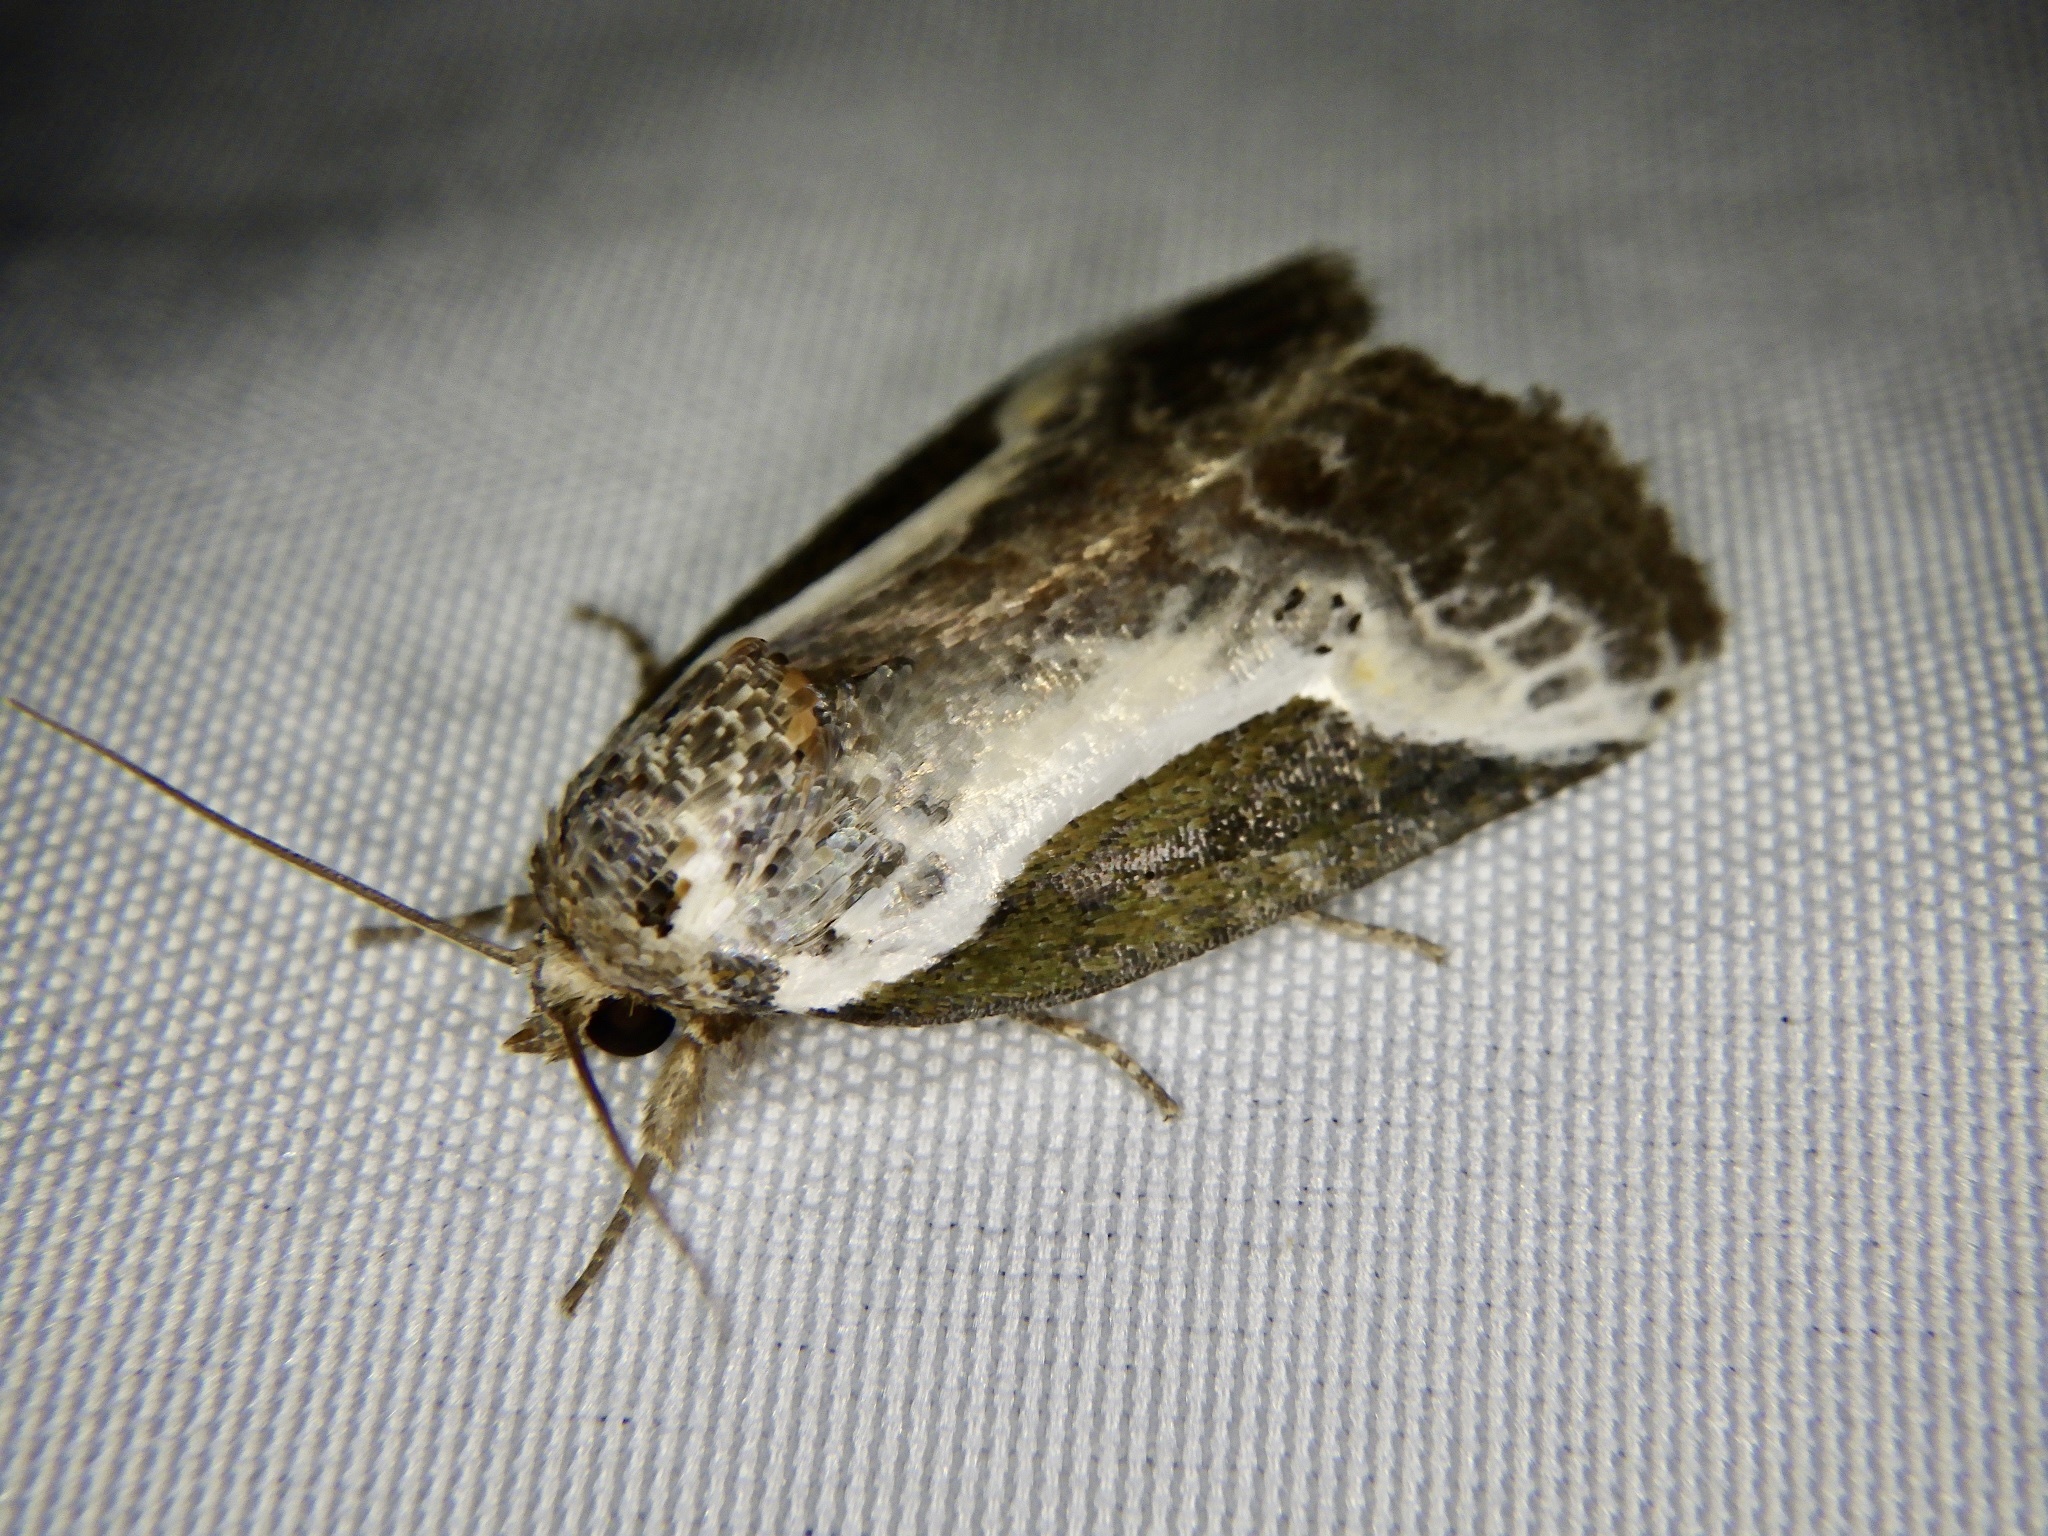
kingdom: Animalia
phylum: Arthropoda
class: Insecta
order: Lepidoptera
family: Noctuidae
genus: Stenoloba
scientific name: Stenoloba jankowskii
